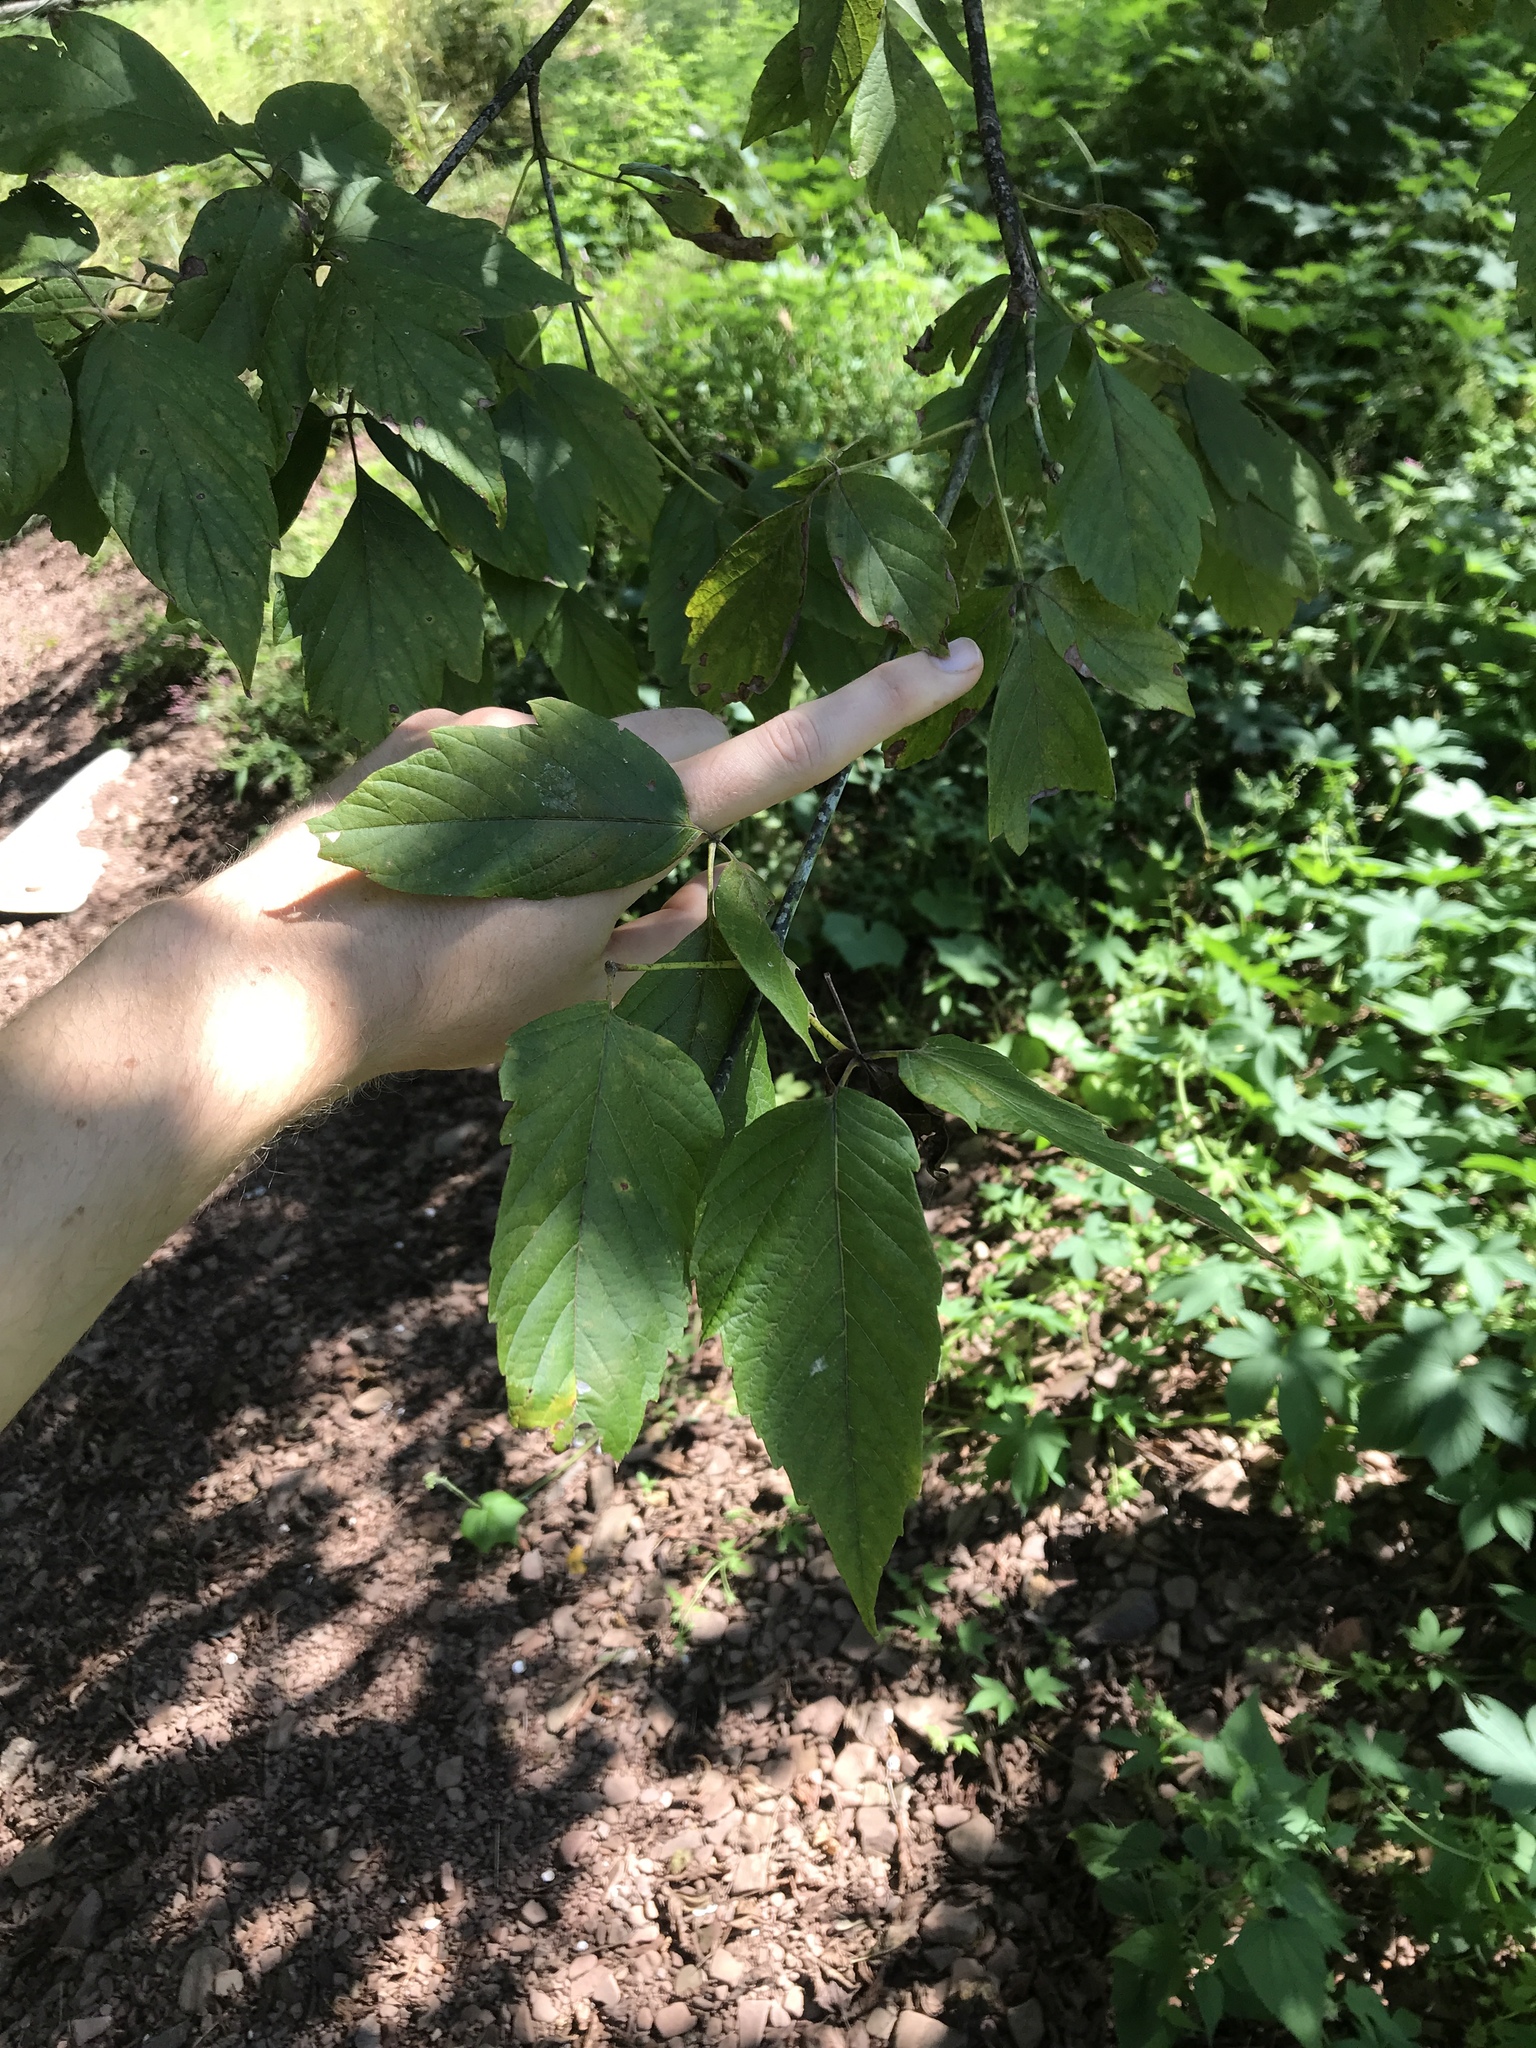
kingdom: Plantae
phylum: Tracheophyta
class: Magnoliopsida
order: Sapindales
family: Sapindaceae
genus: Acer
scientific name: Acer negundo
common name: Ashleaf maple
